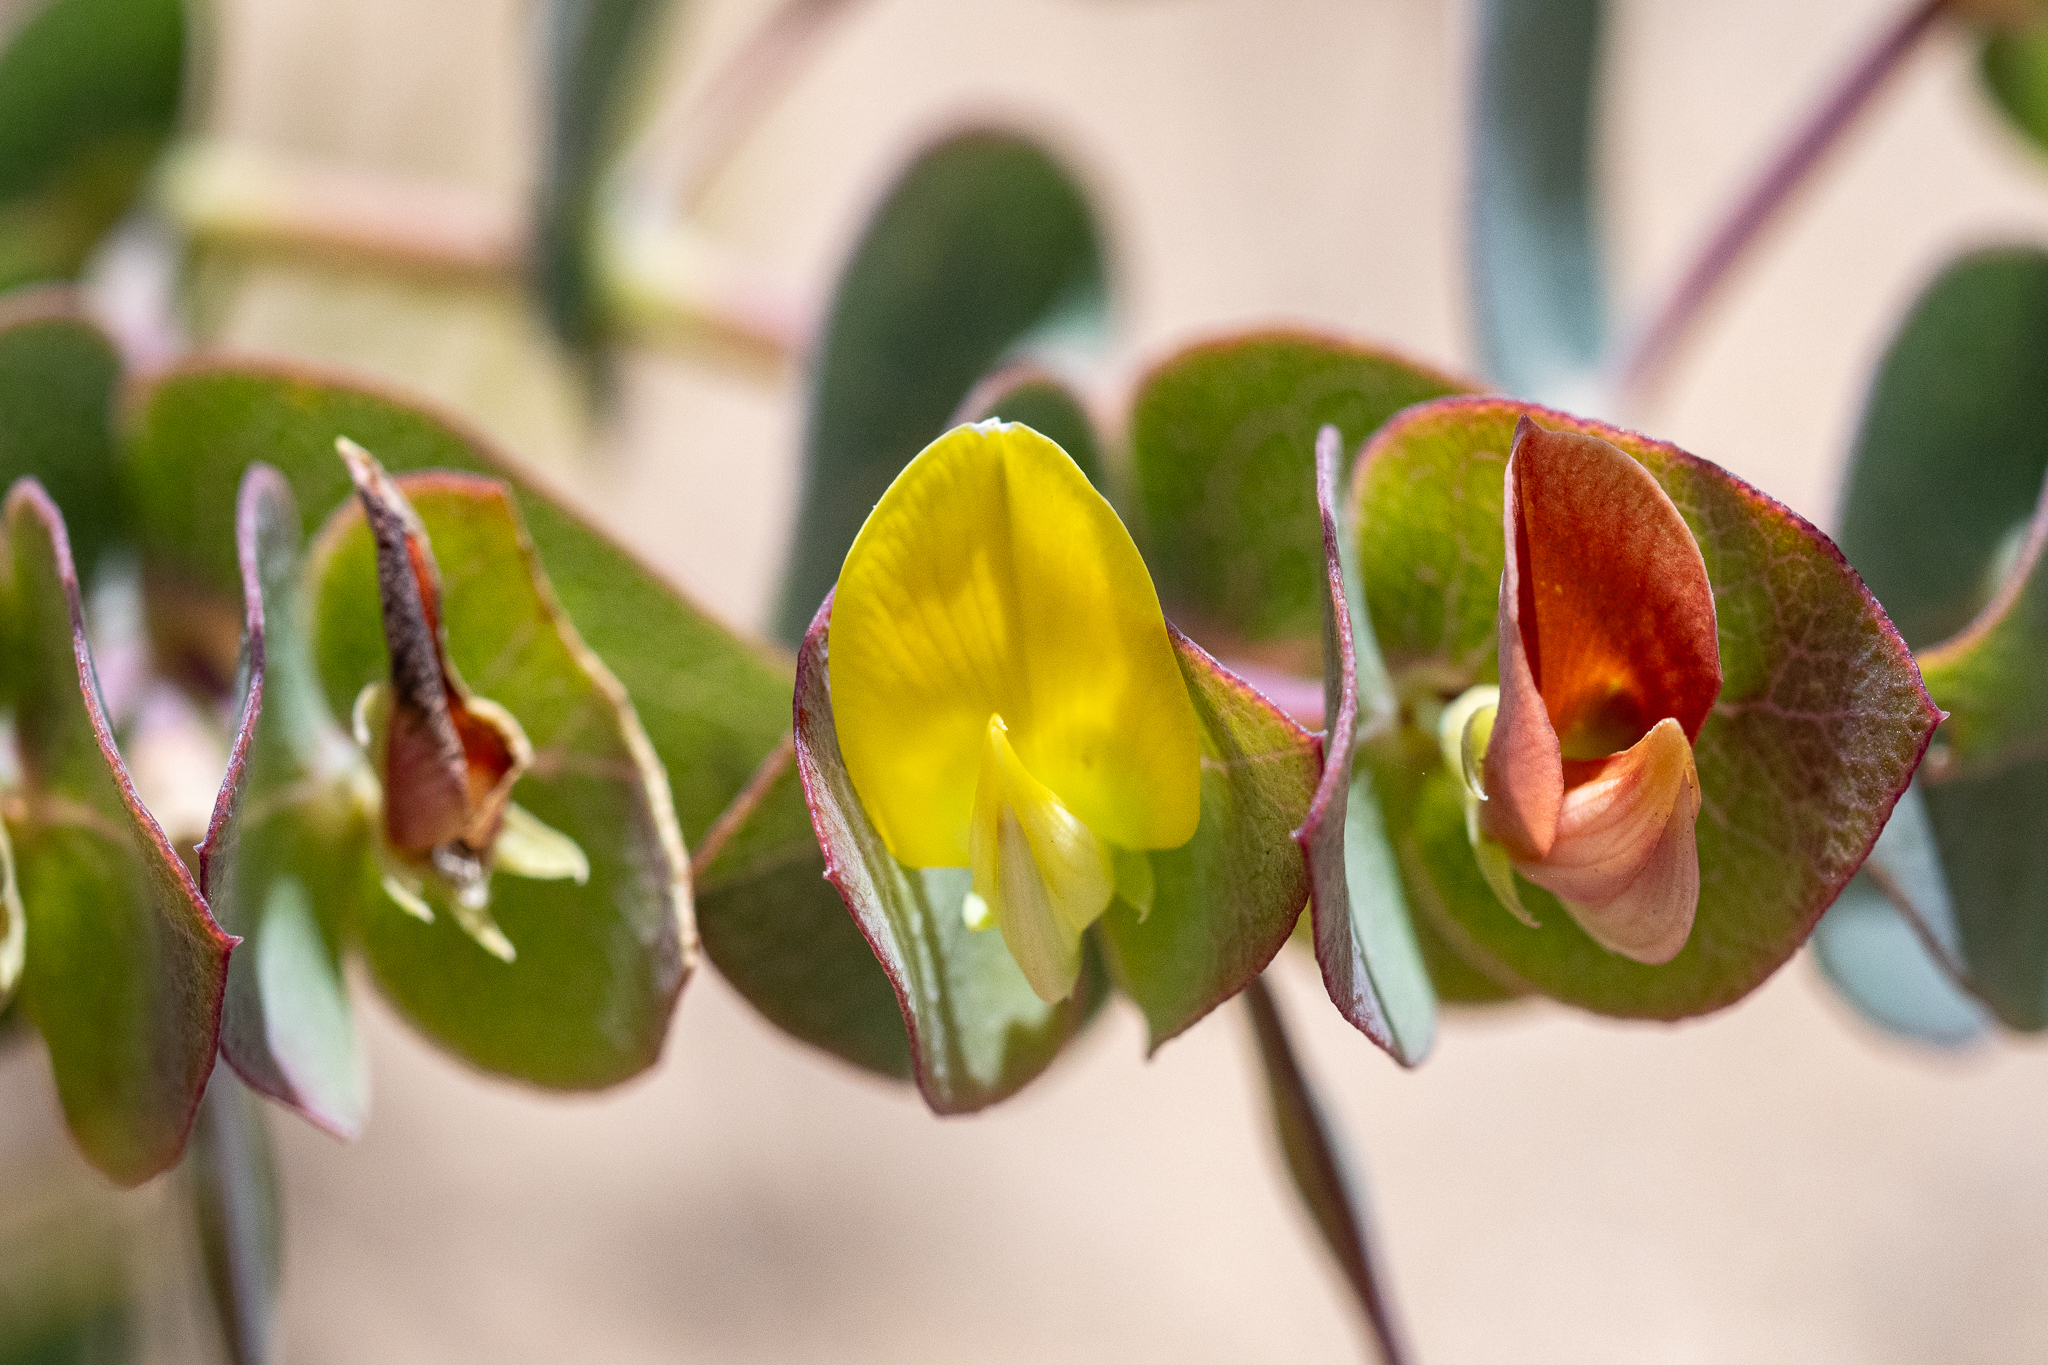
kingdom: Plantae
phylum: Tracheophyta
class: Magnoliopsida
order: Fabales
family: Fabaceae
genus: Rafnia
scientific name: Rafnia acuminata
